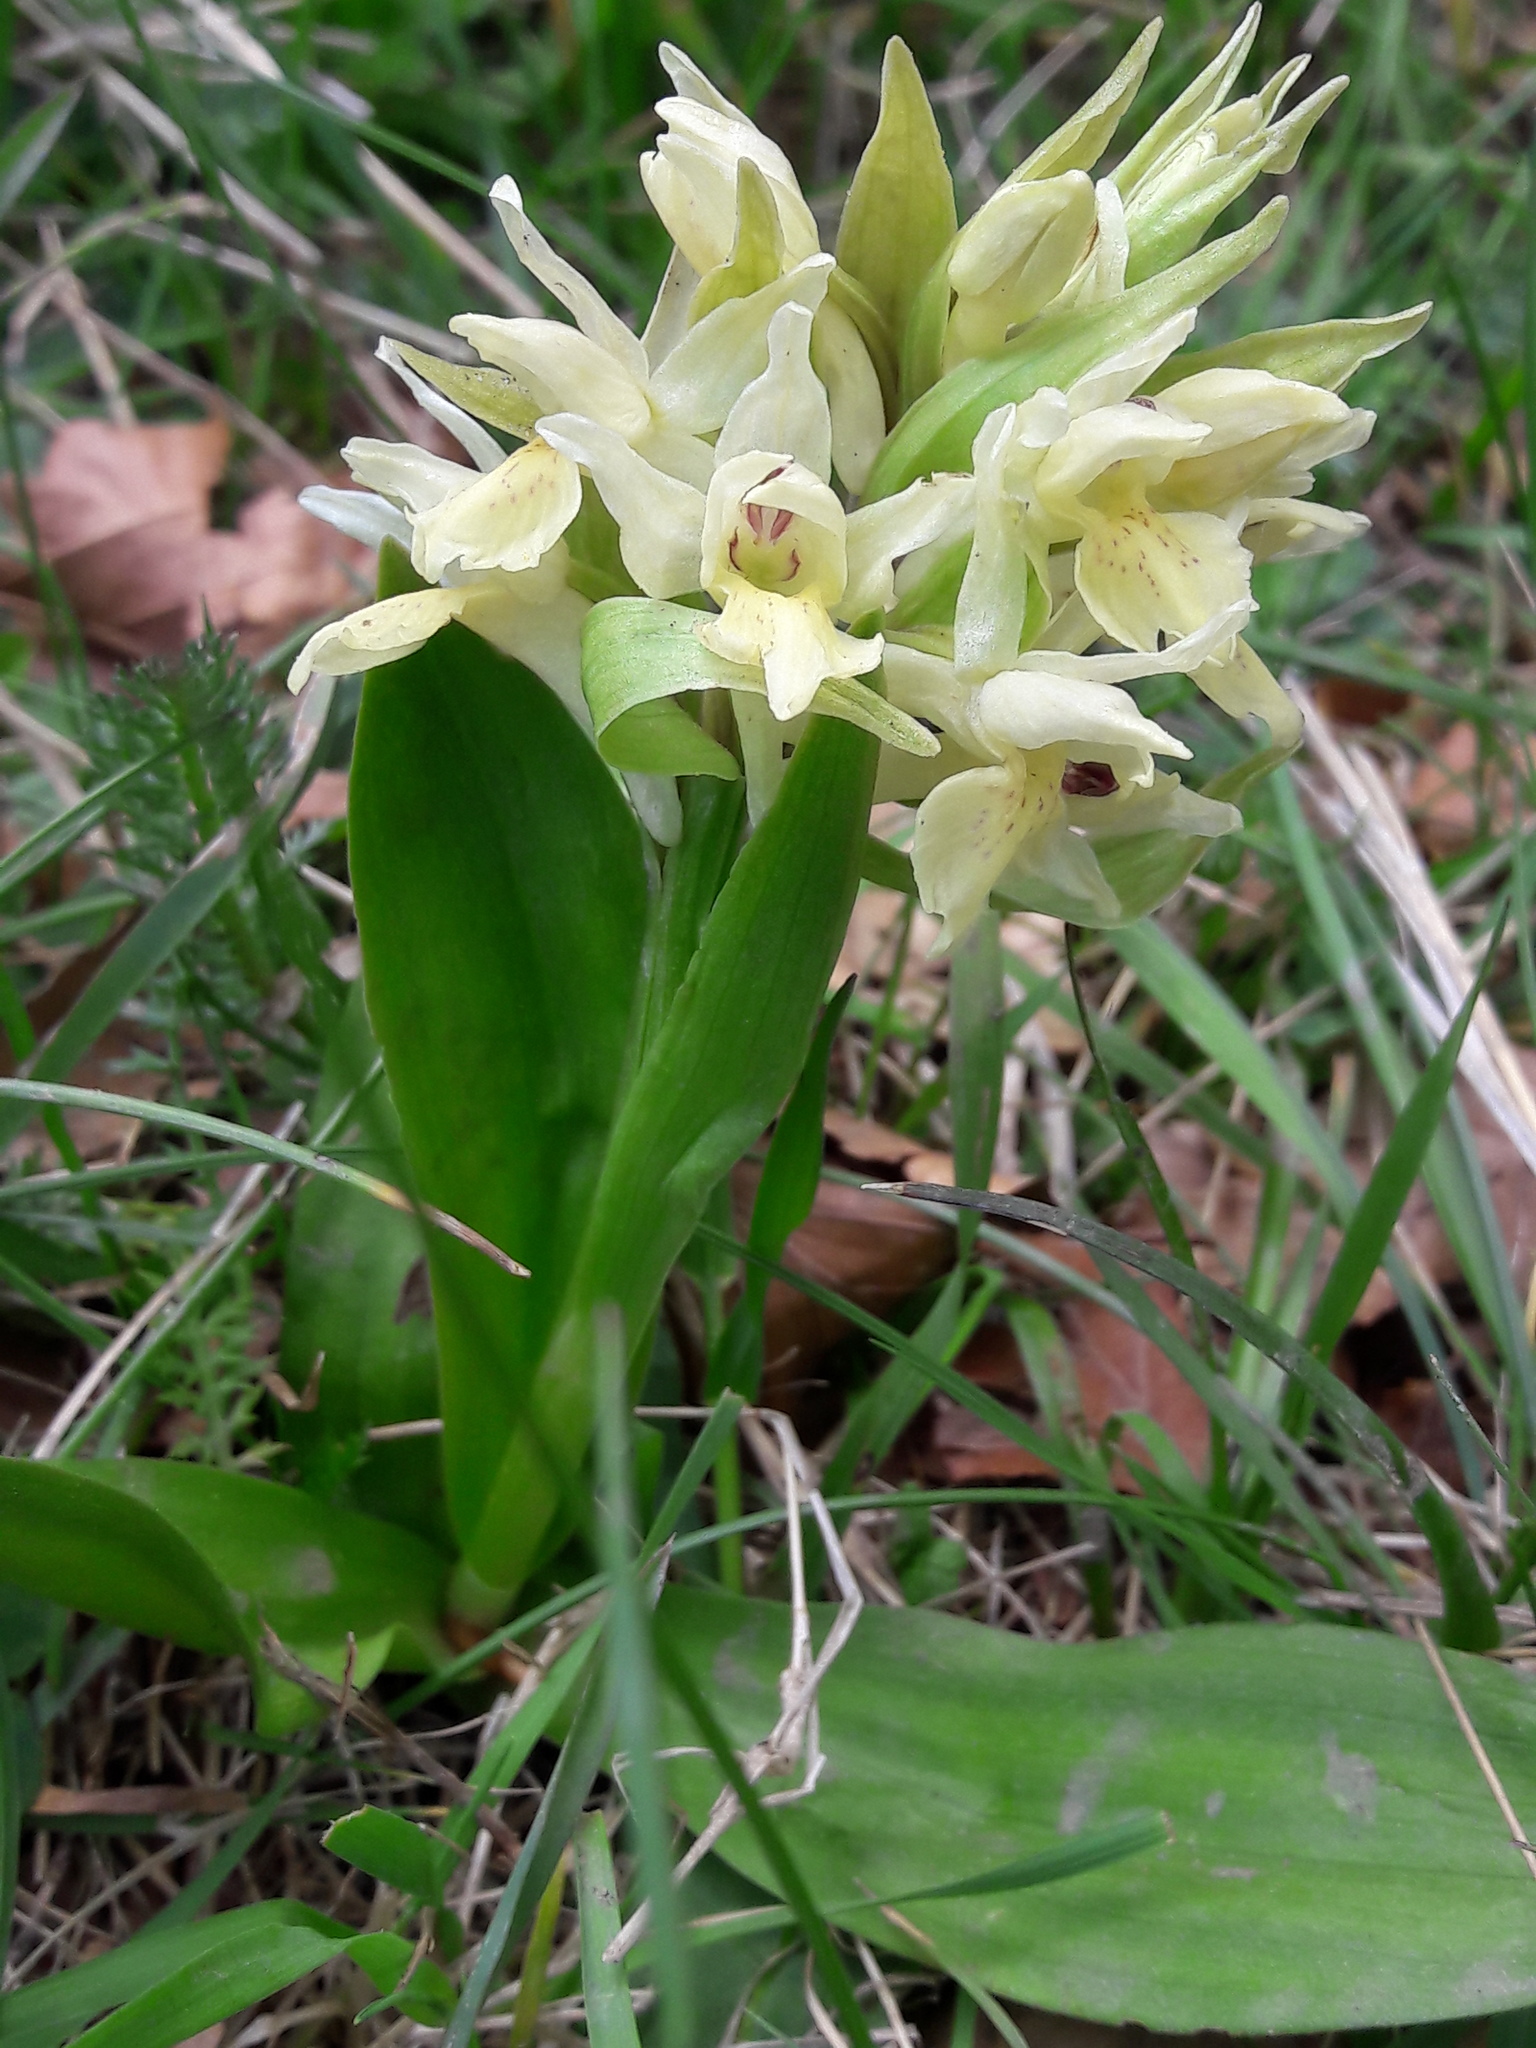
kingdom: Plantae
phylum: Tracheophyta
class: Liliopsida
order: Asparagales
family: Orchidaceae
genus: Dactylorhiza
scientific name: Dactylorhiza sambucina
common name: Elder-flowered orchid
